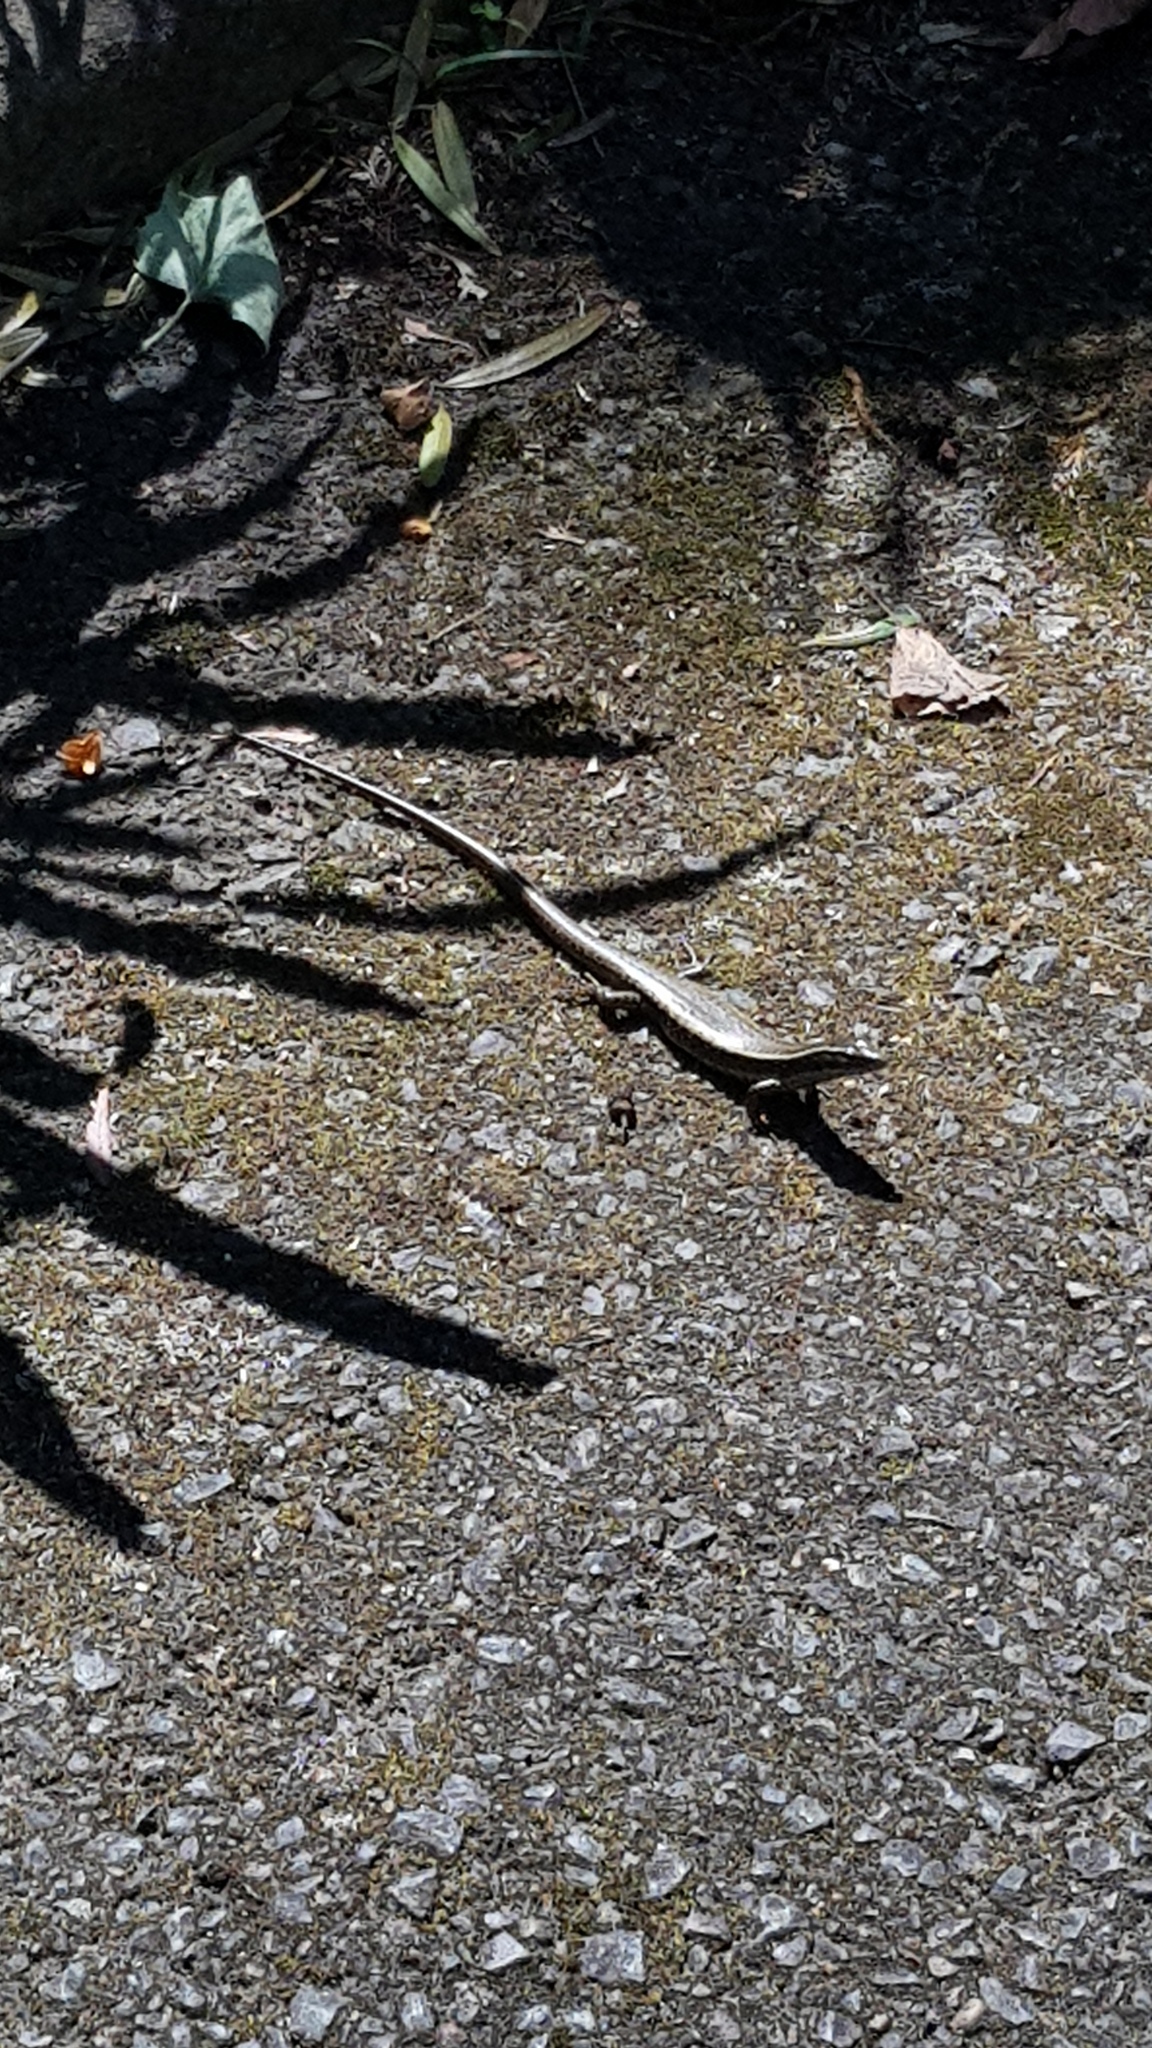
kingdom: Animalia
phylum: Chordata
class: Squamata
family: Scincidae
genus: Eulamprus
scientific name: Eulamprus quoyii
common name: Eastern water skink
